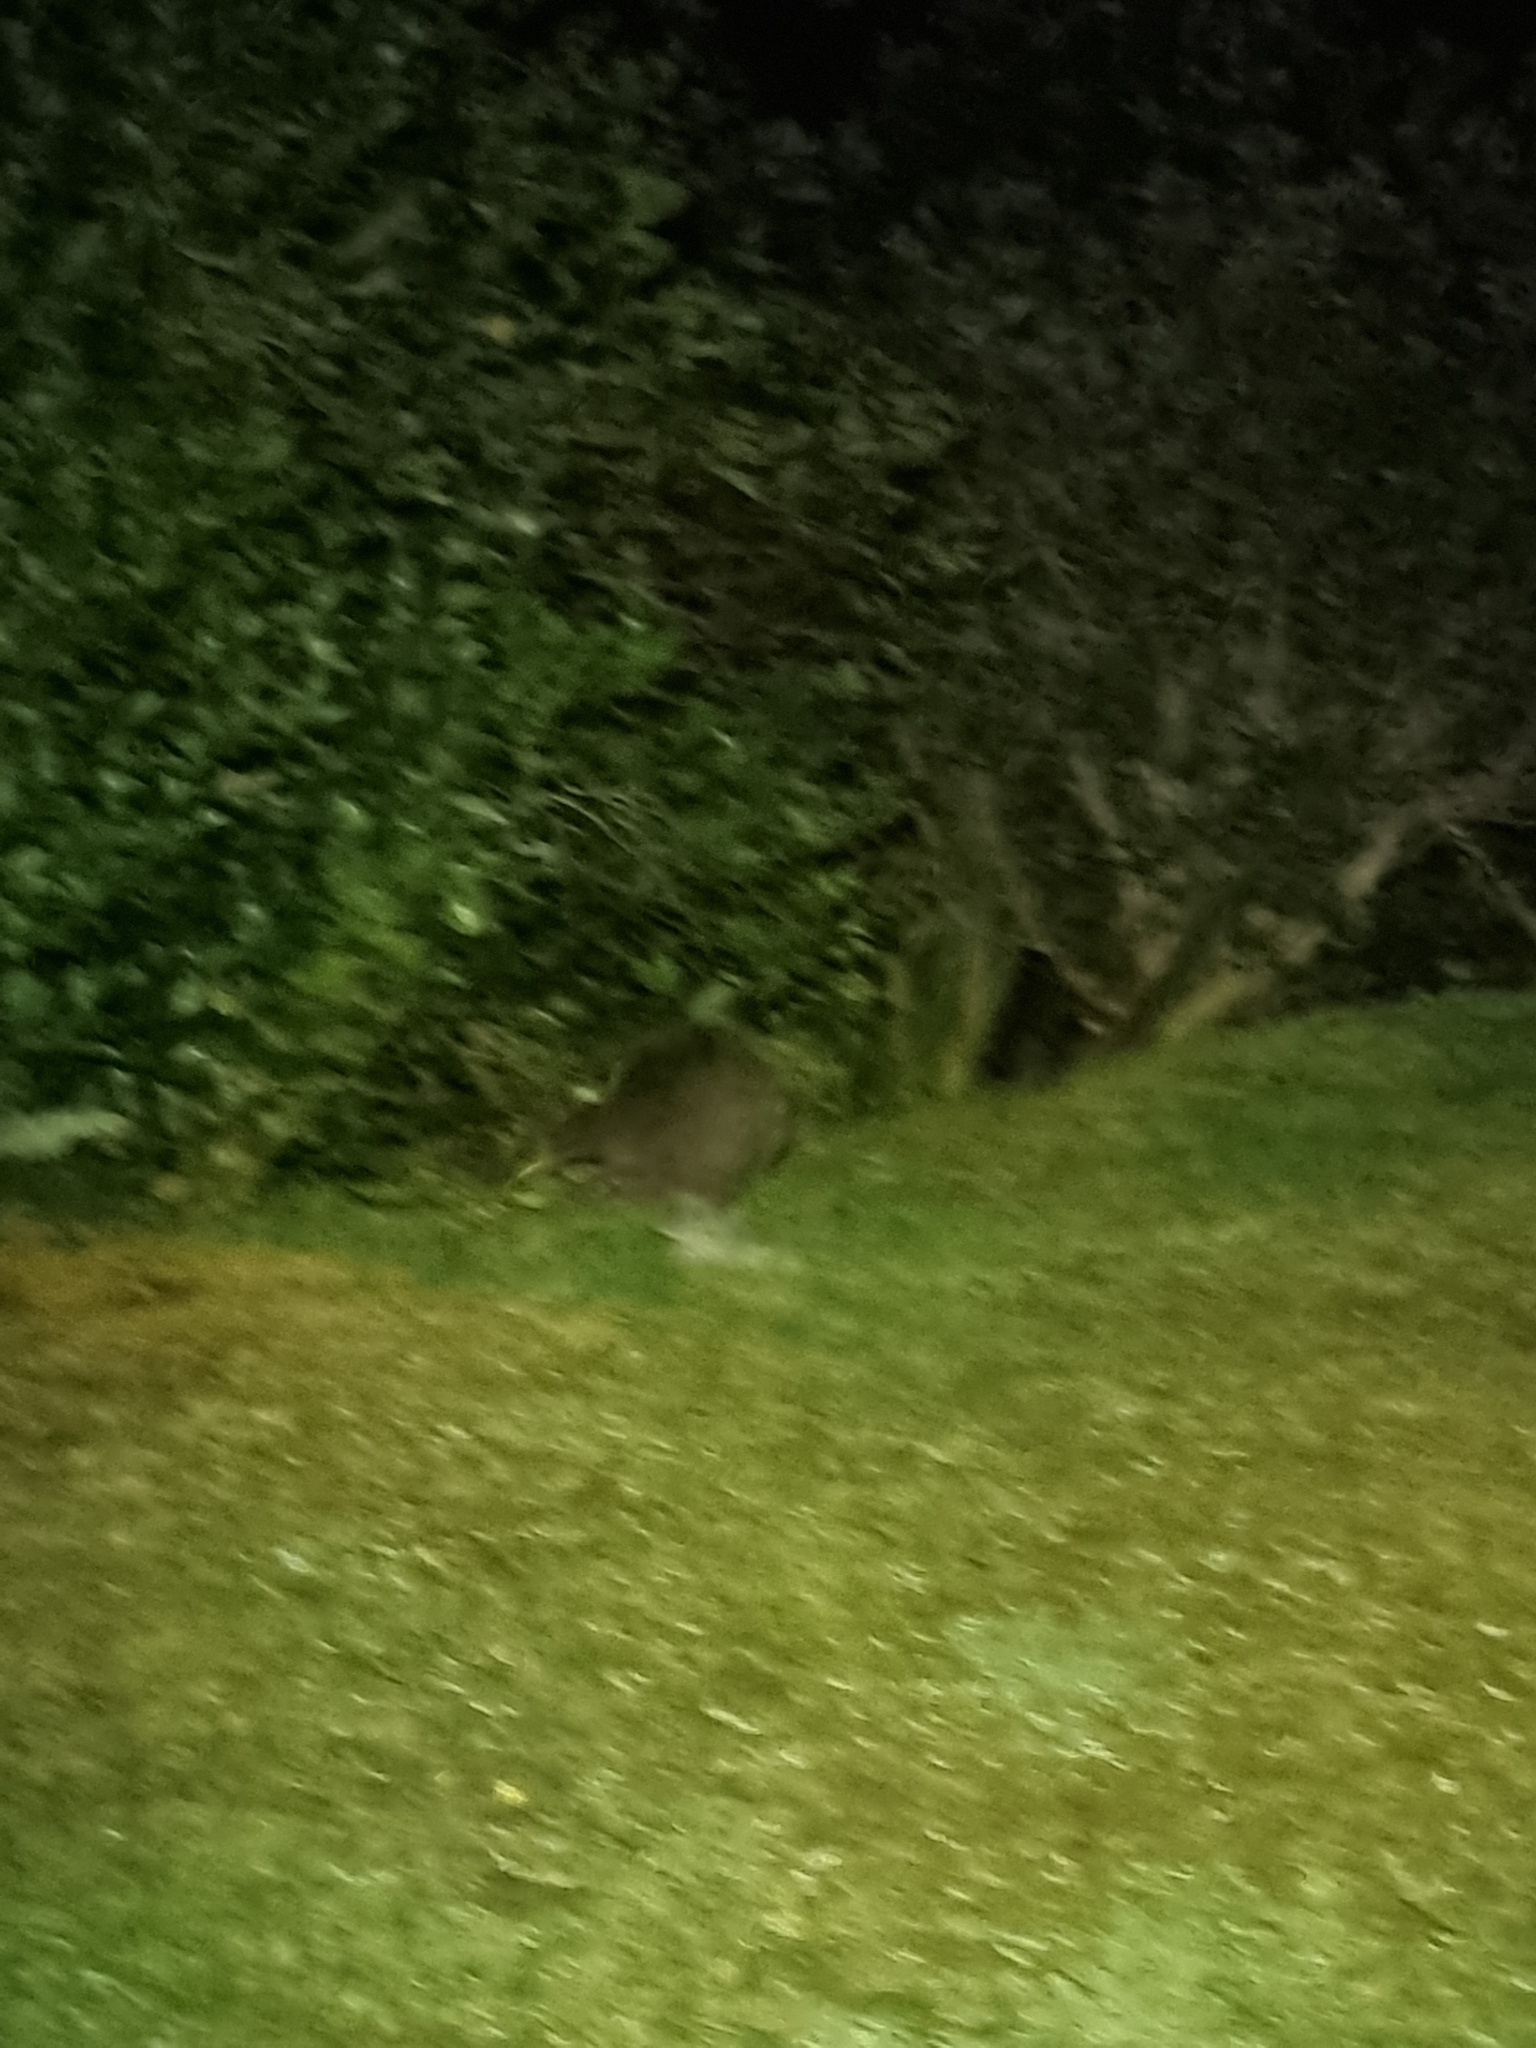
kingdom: Animalia
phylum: Chordata
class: Aves
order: Apterygiformes
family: Apterygidae
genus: Apteryx
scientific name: Apteryx haastii
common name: Great spotted kiwi
